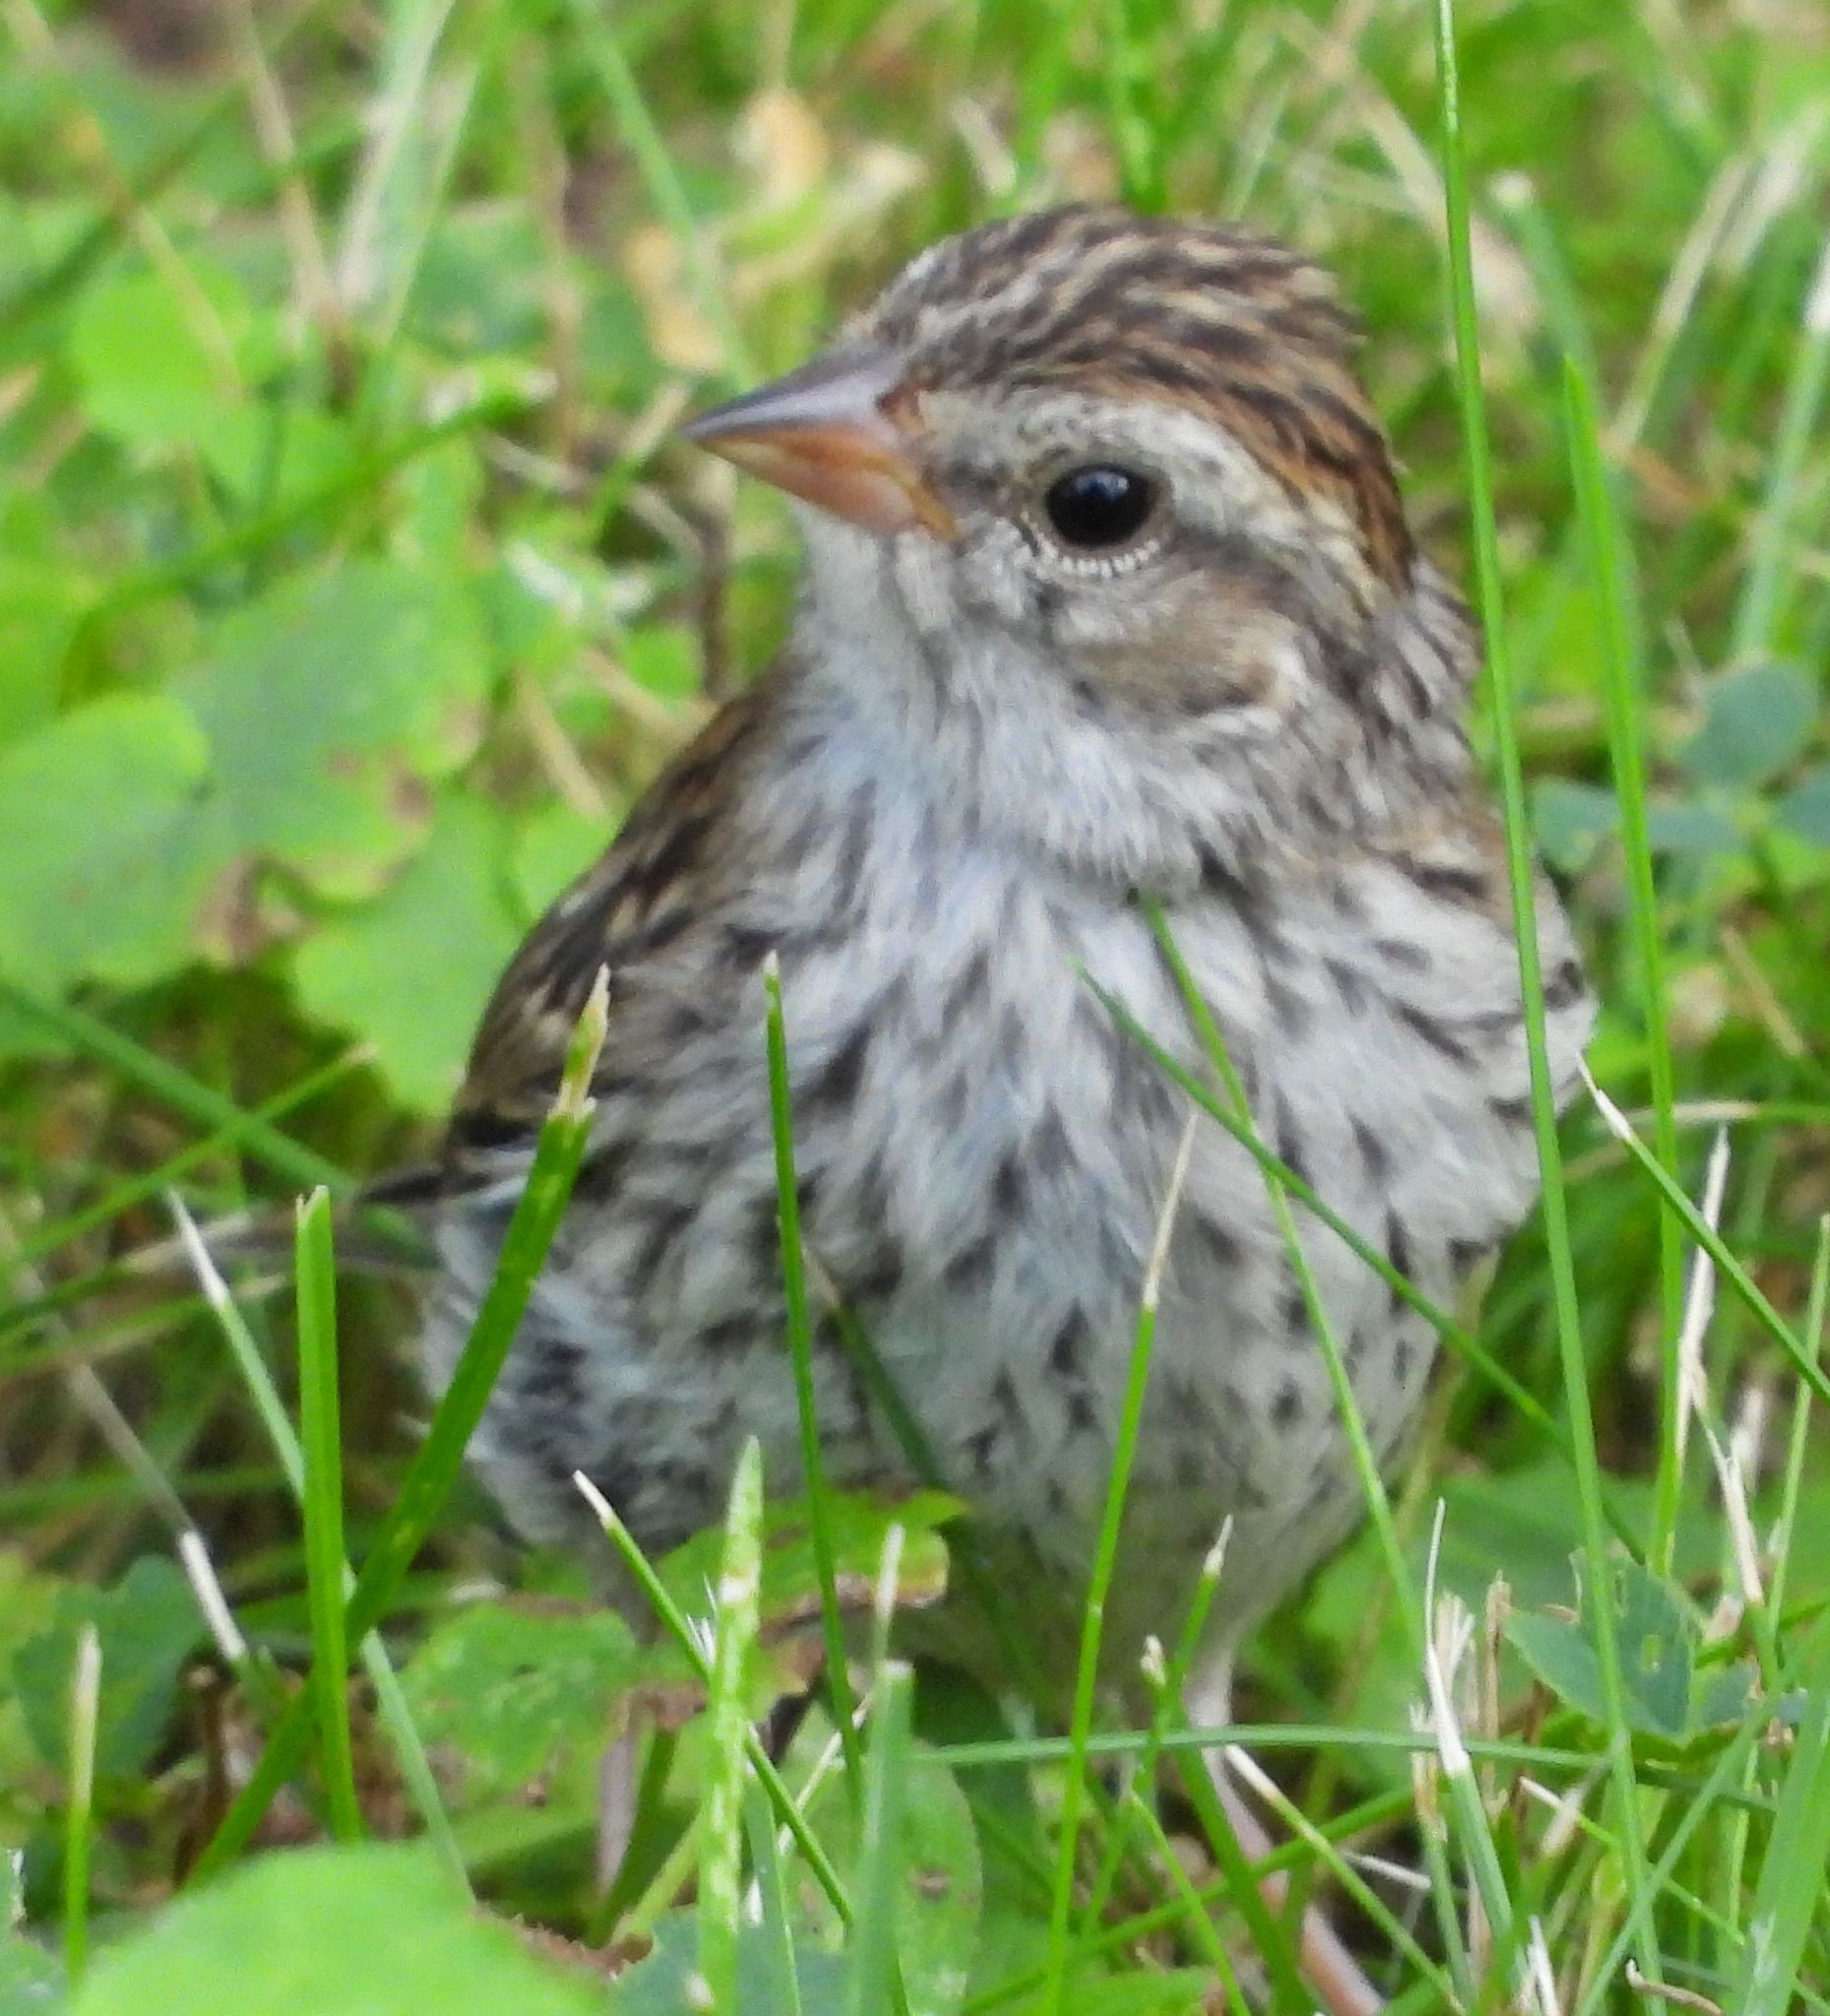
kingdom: Animalia
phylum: Chordata
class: Aves
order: Passeriformes
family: Passerellidae
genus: Spizella
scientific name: Spizella passerina
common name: Chipping sparrow
